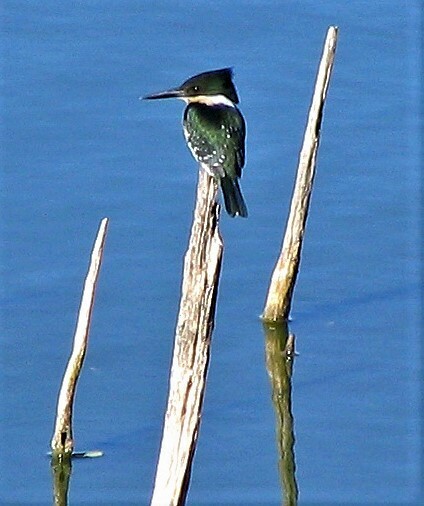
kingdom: Animalia
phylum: Chordata
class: Aves
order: Coraciiformes
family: Alcedinidae
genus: Chloroceryle
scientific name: Chloroceryle americana
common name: Green kingfisher
